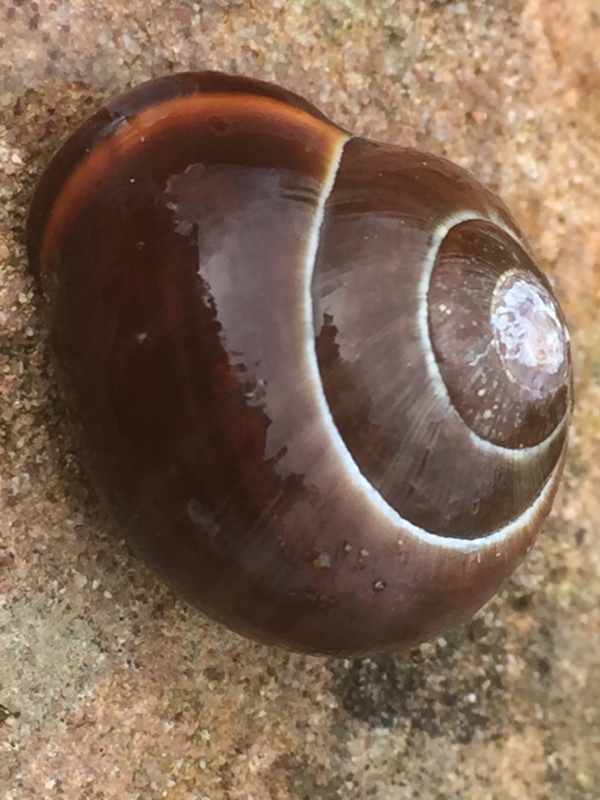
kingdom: Animalia
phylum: Mollusca
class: Gastropoda
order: Stylommatophora
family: Helicidae
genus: Cepaea
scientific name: Cepaea nemoralis
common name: Grovesnail
